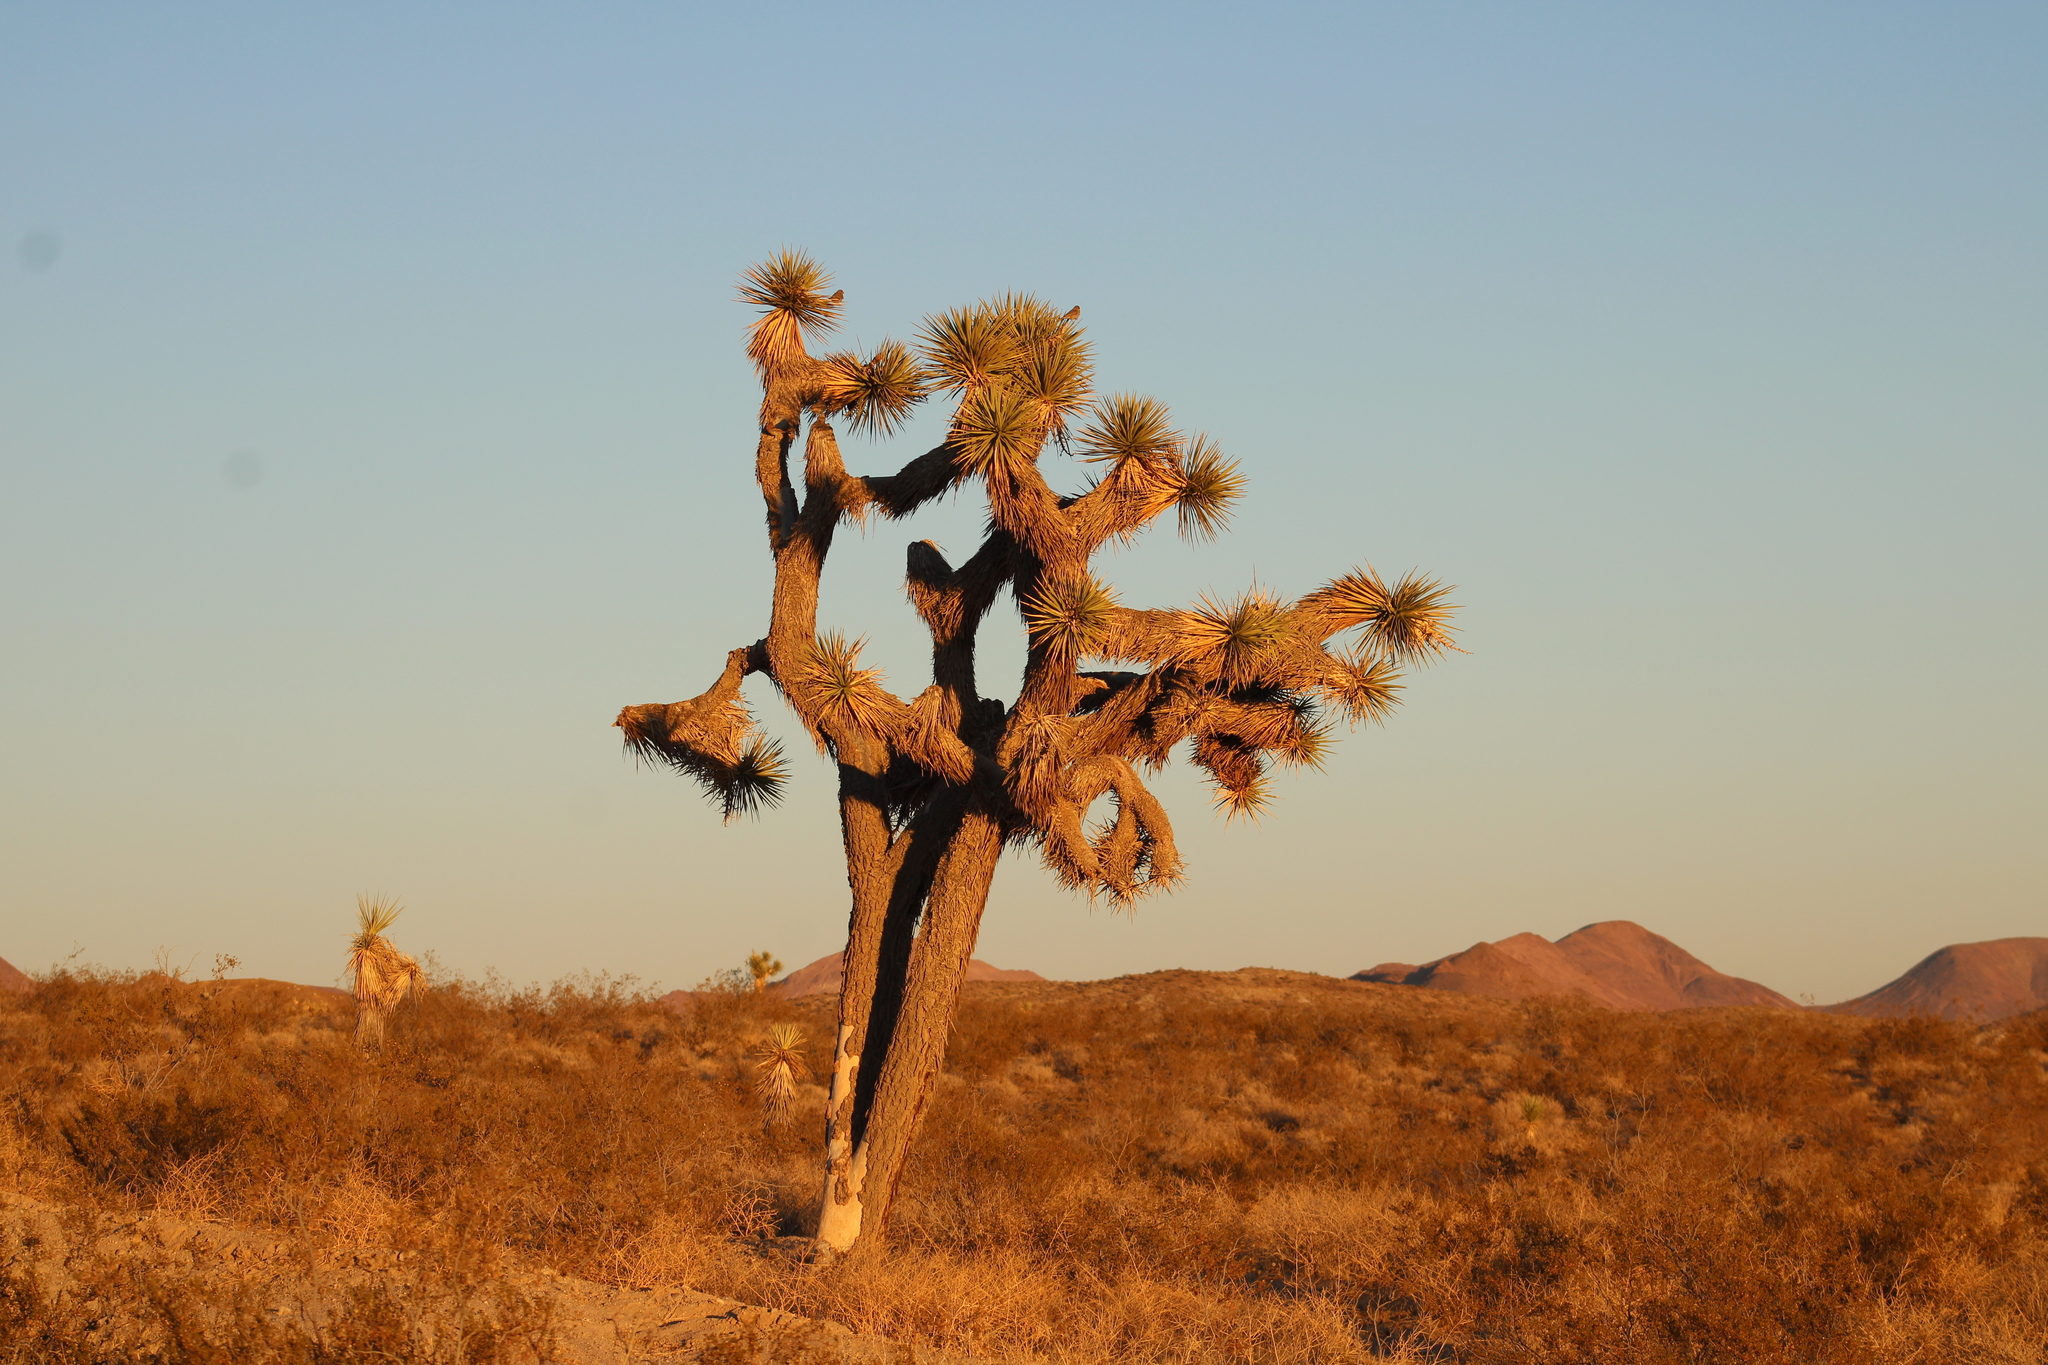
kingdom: Animalia
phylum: Chordata
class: Aves
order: Passeriformes
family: Fringillidae
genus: Haemorhous
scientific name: Haemorhous mexicanus
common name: House finch
